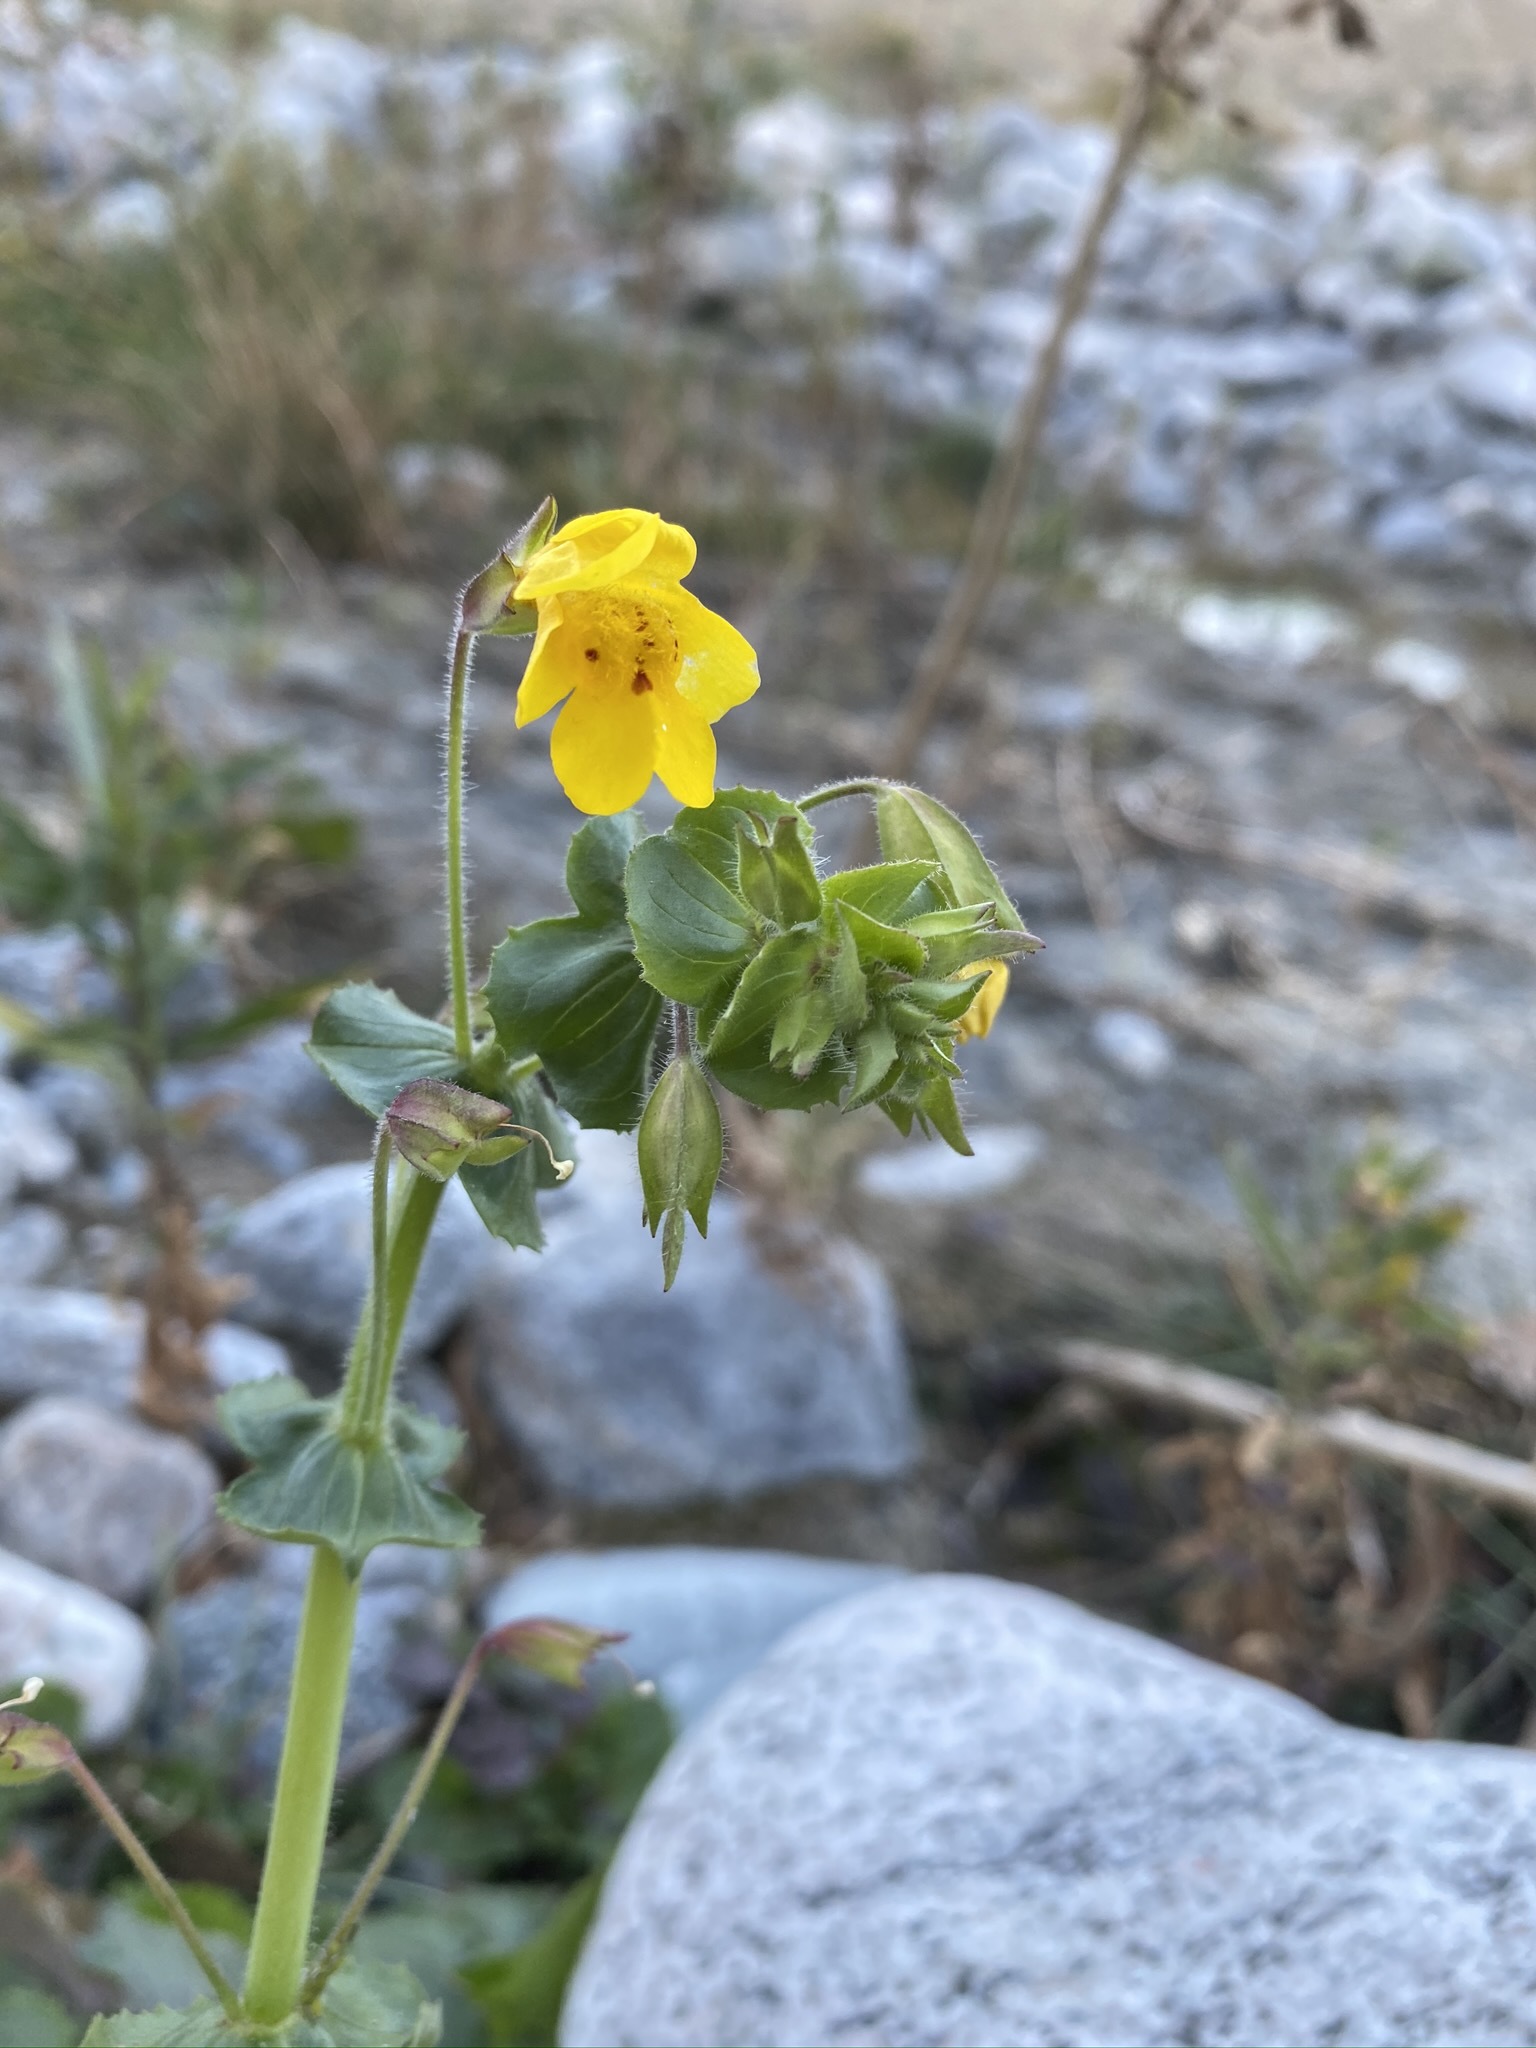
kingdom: Plantae
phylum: Tracheophyta
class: Magnoliopsida
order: Lamiales
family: Phrymaceae
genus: Erythranthe
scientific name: Erythranthe guttata
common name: Monkeyflower
